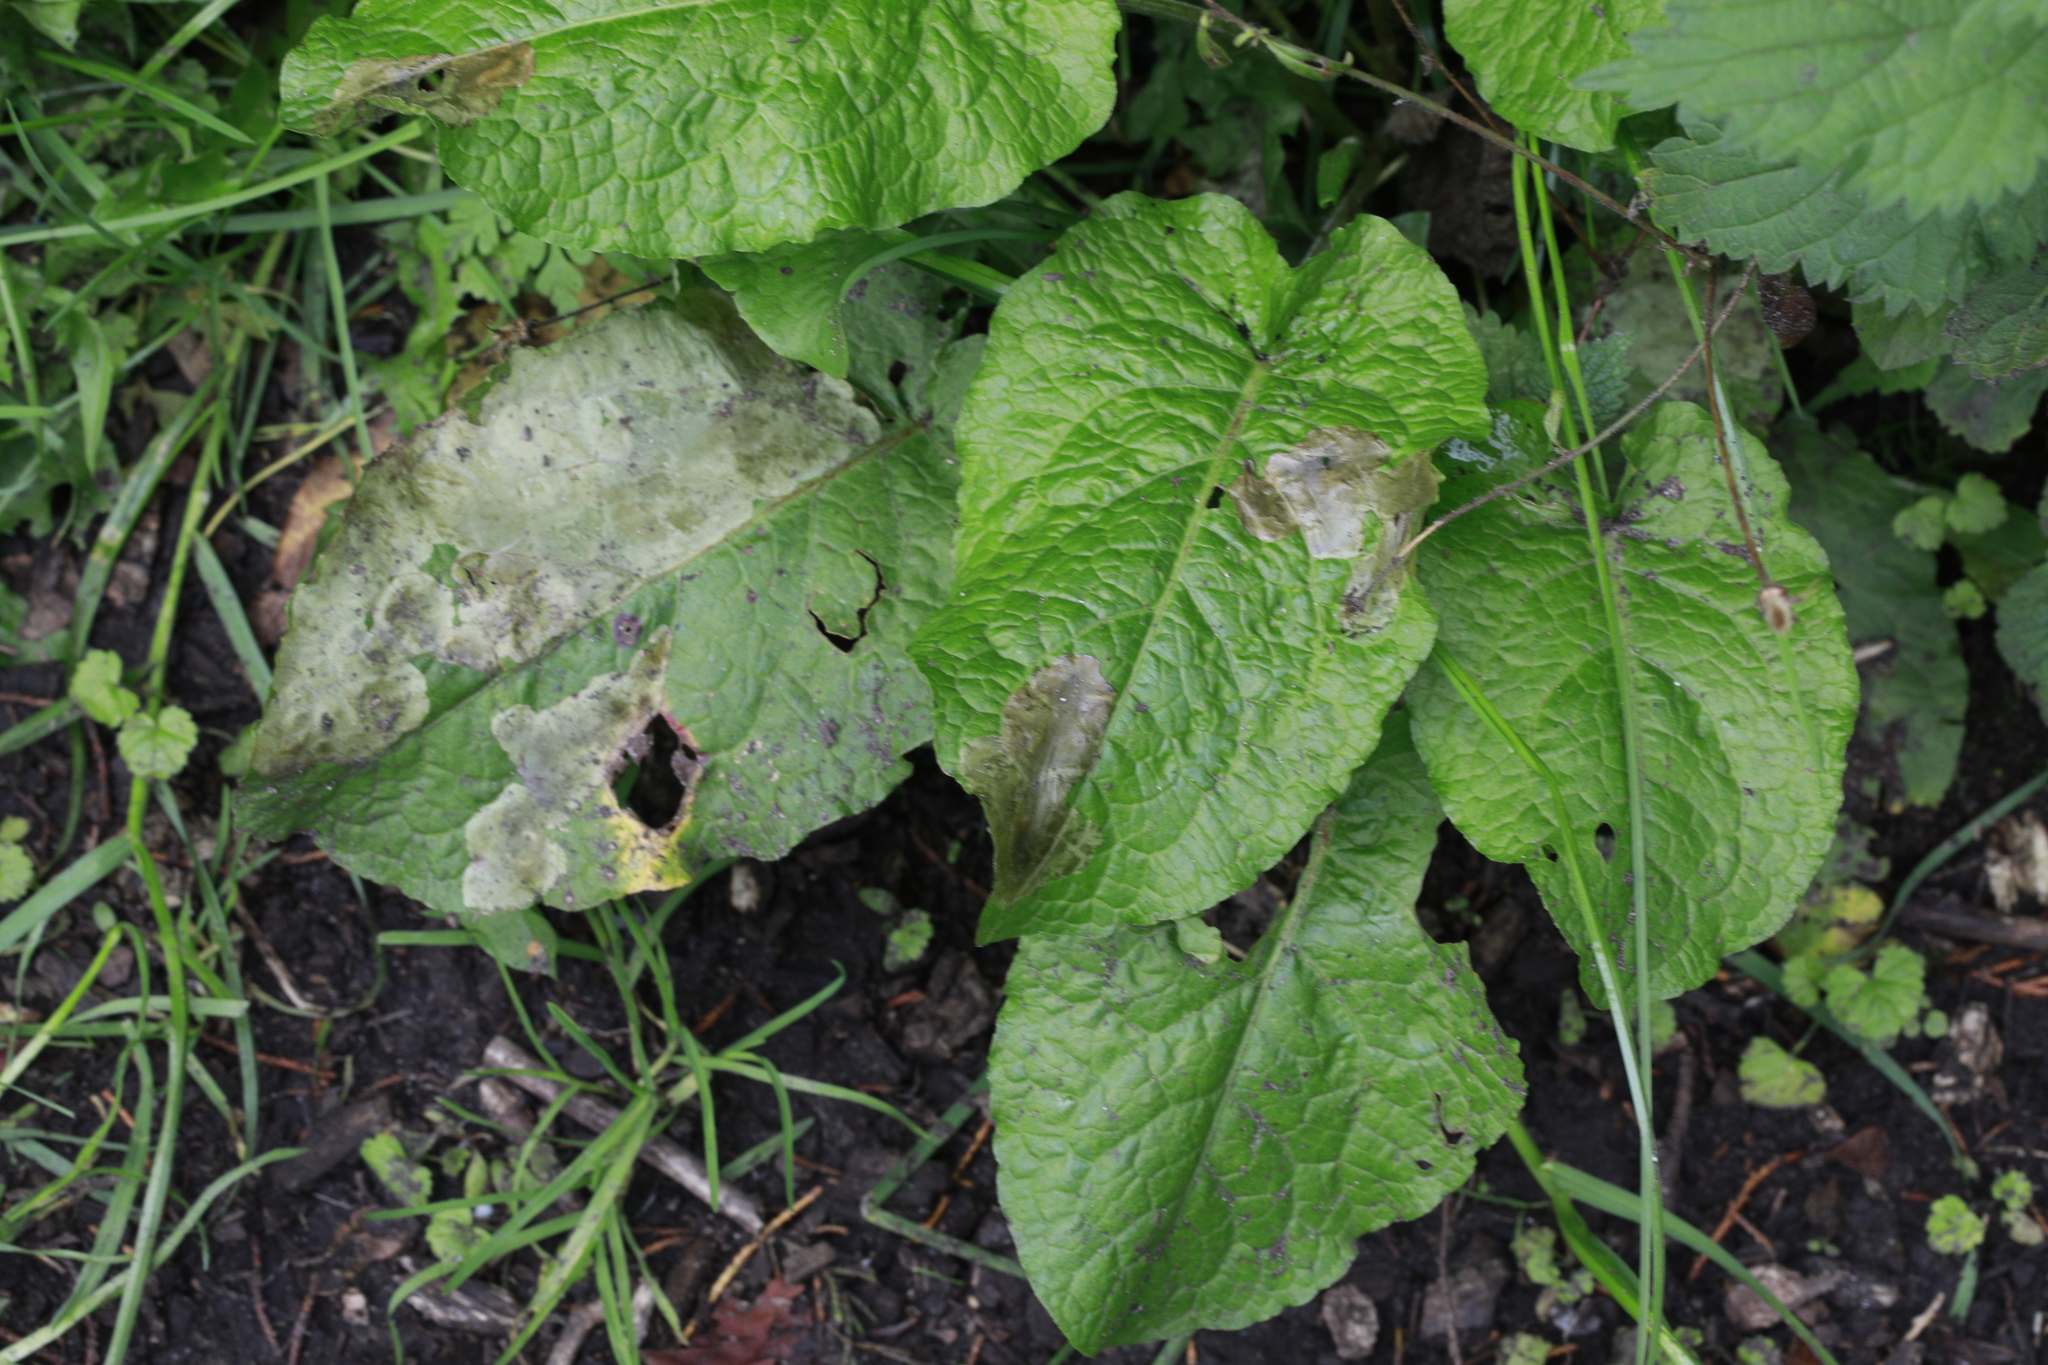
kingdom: Plantae
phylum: Tracheophyta
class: Magnoliopsida
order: Caryophyllales
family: Polygonaceae
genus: Rumex
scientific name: Rumex obtusifolius
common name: Bitter dock
